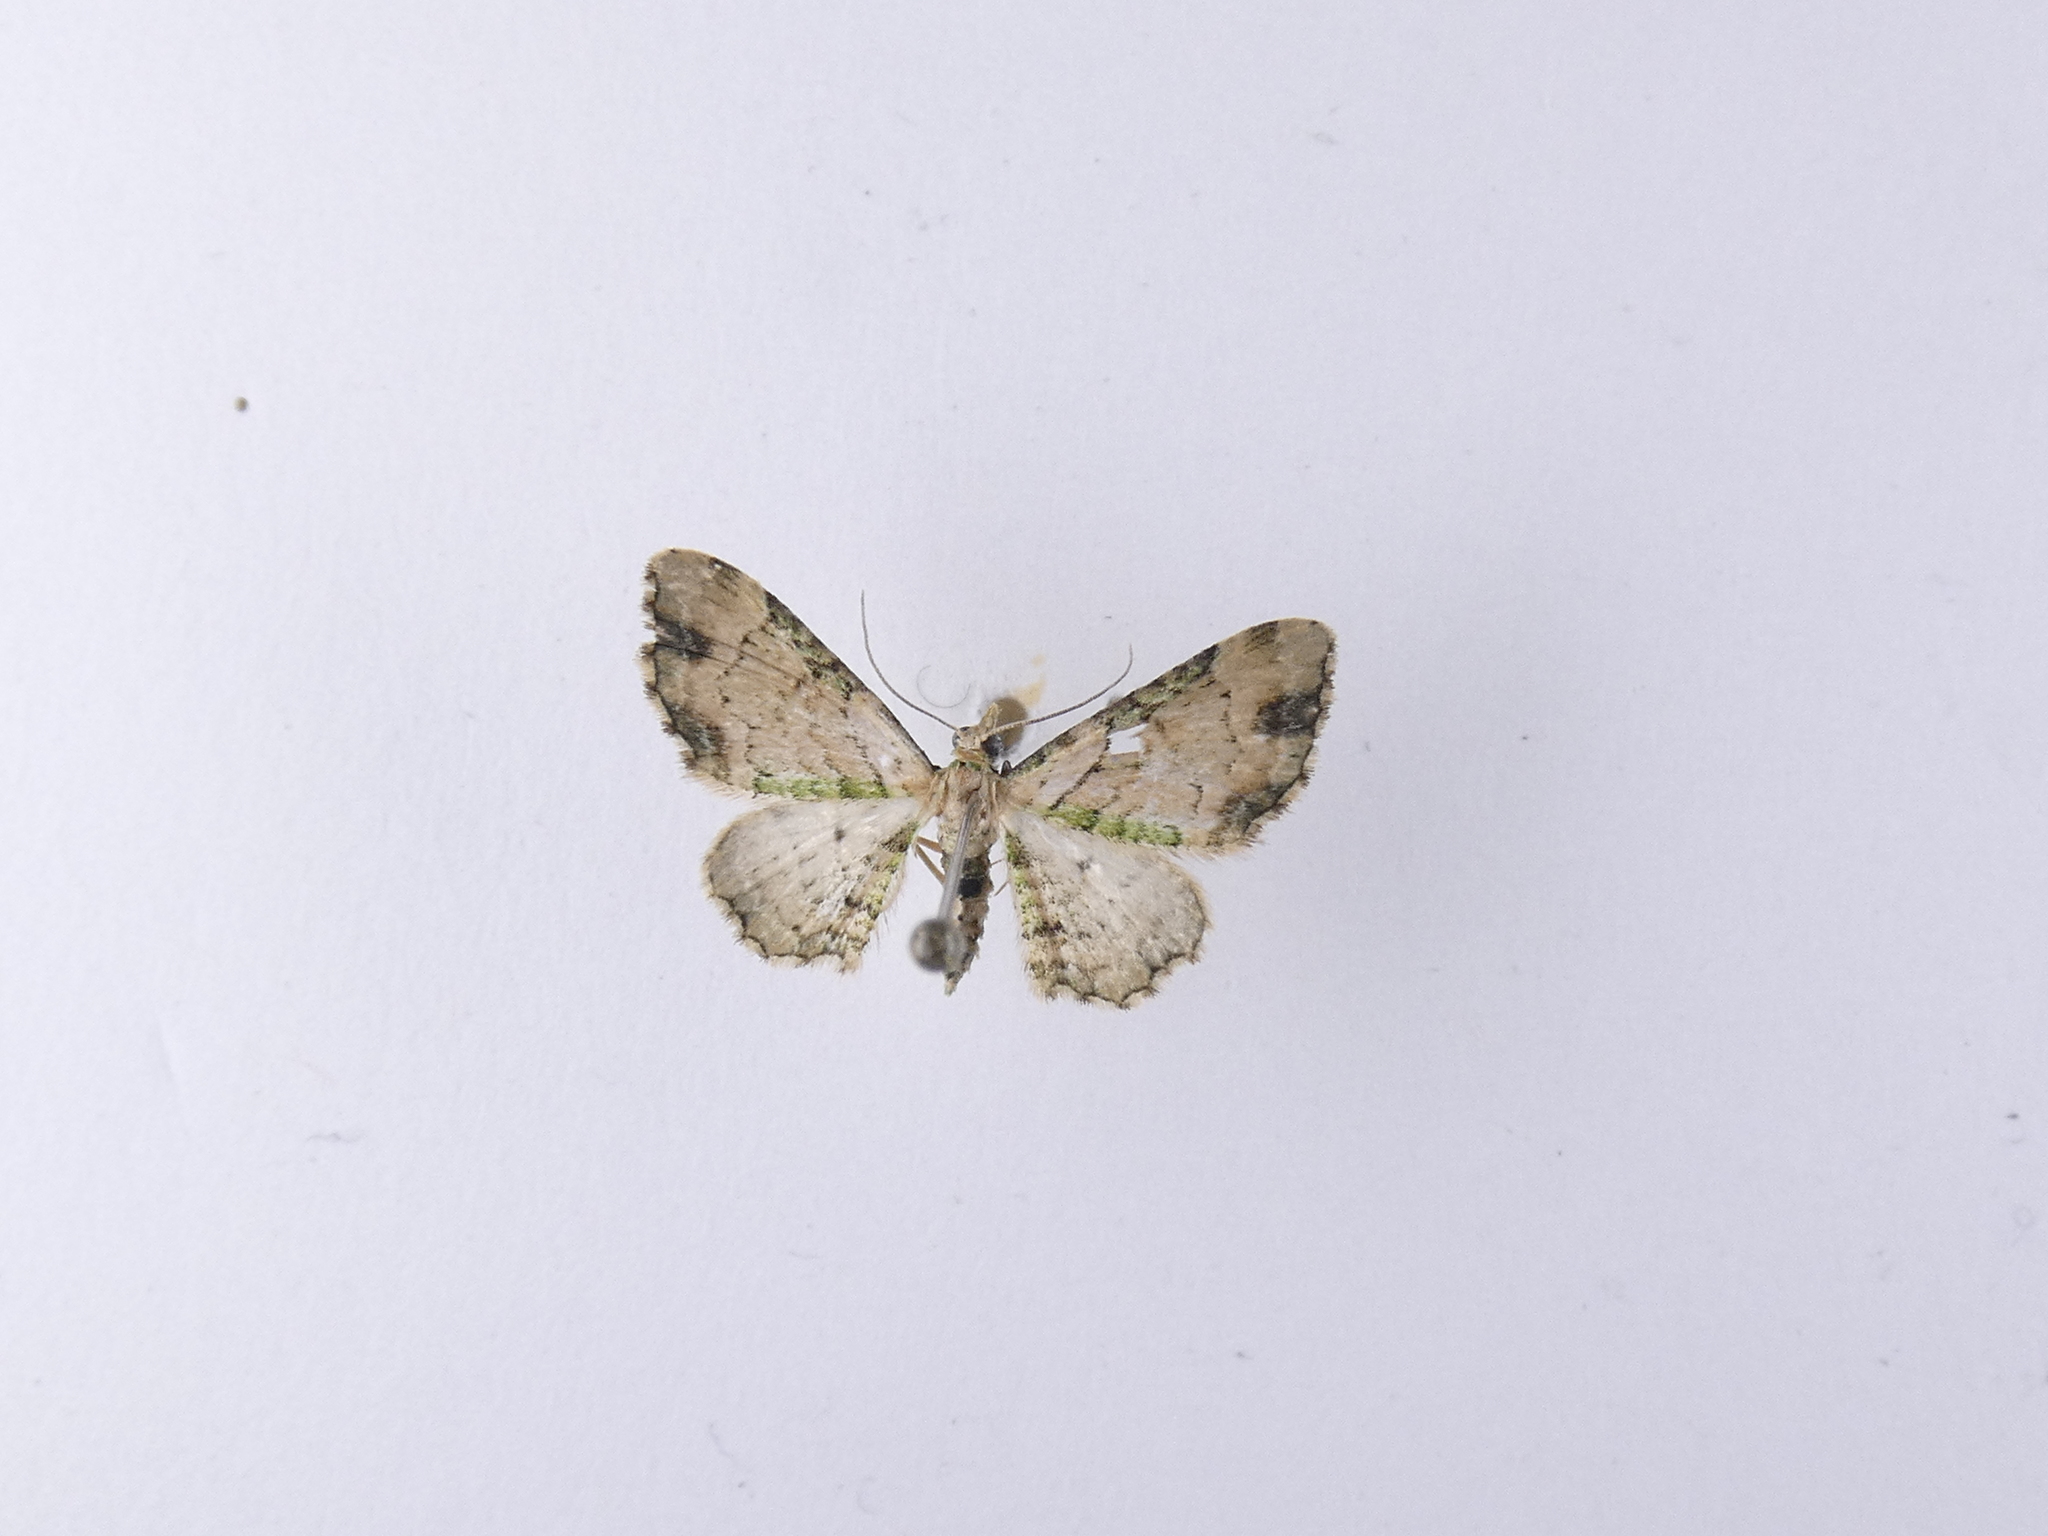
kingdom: Animalia
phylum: Arthropoda
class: Insecta
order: Lepidoptera
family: Geometridae
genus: Chloroclystis
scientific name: Chloroclystis
